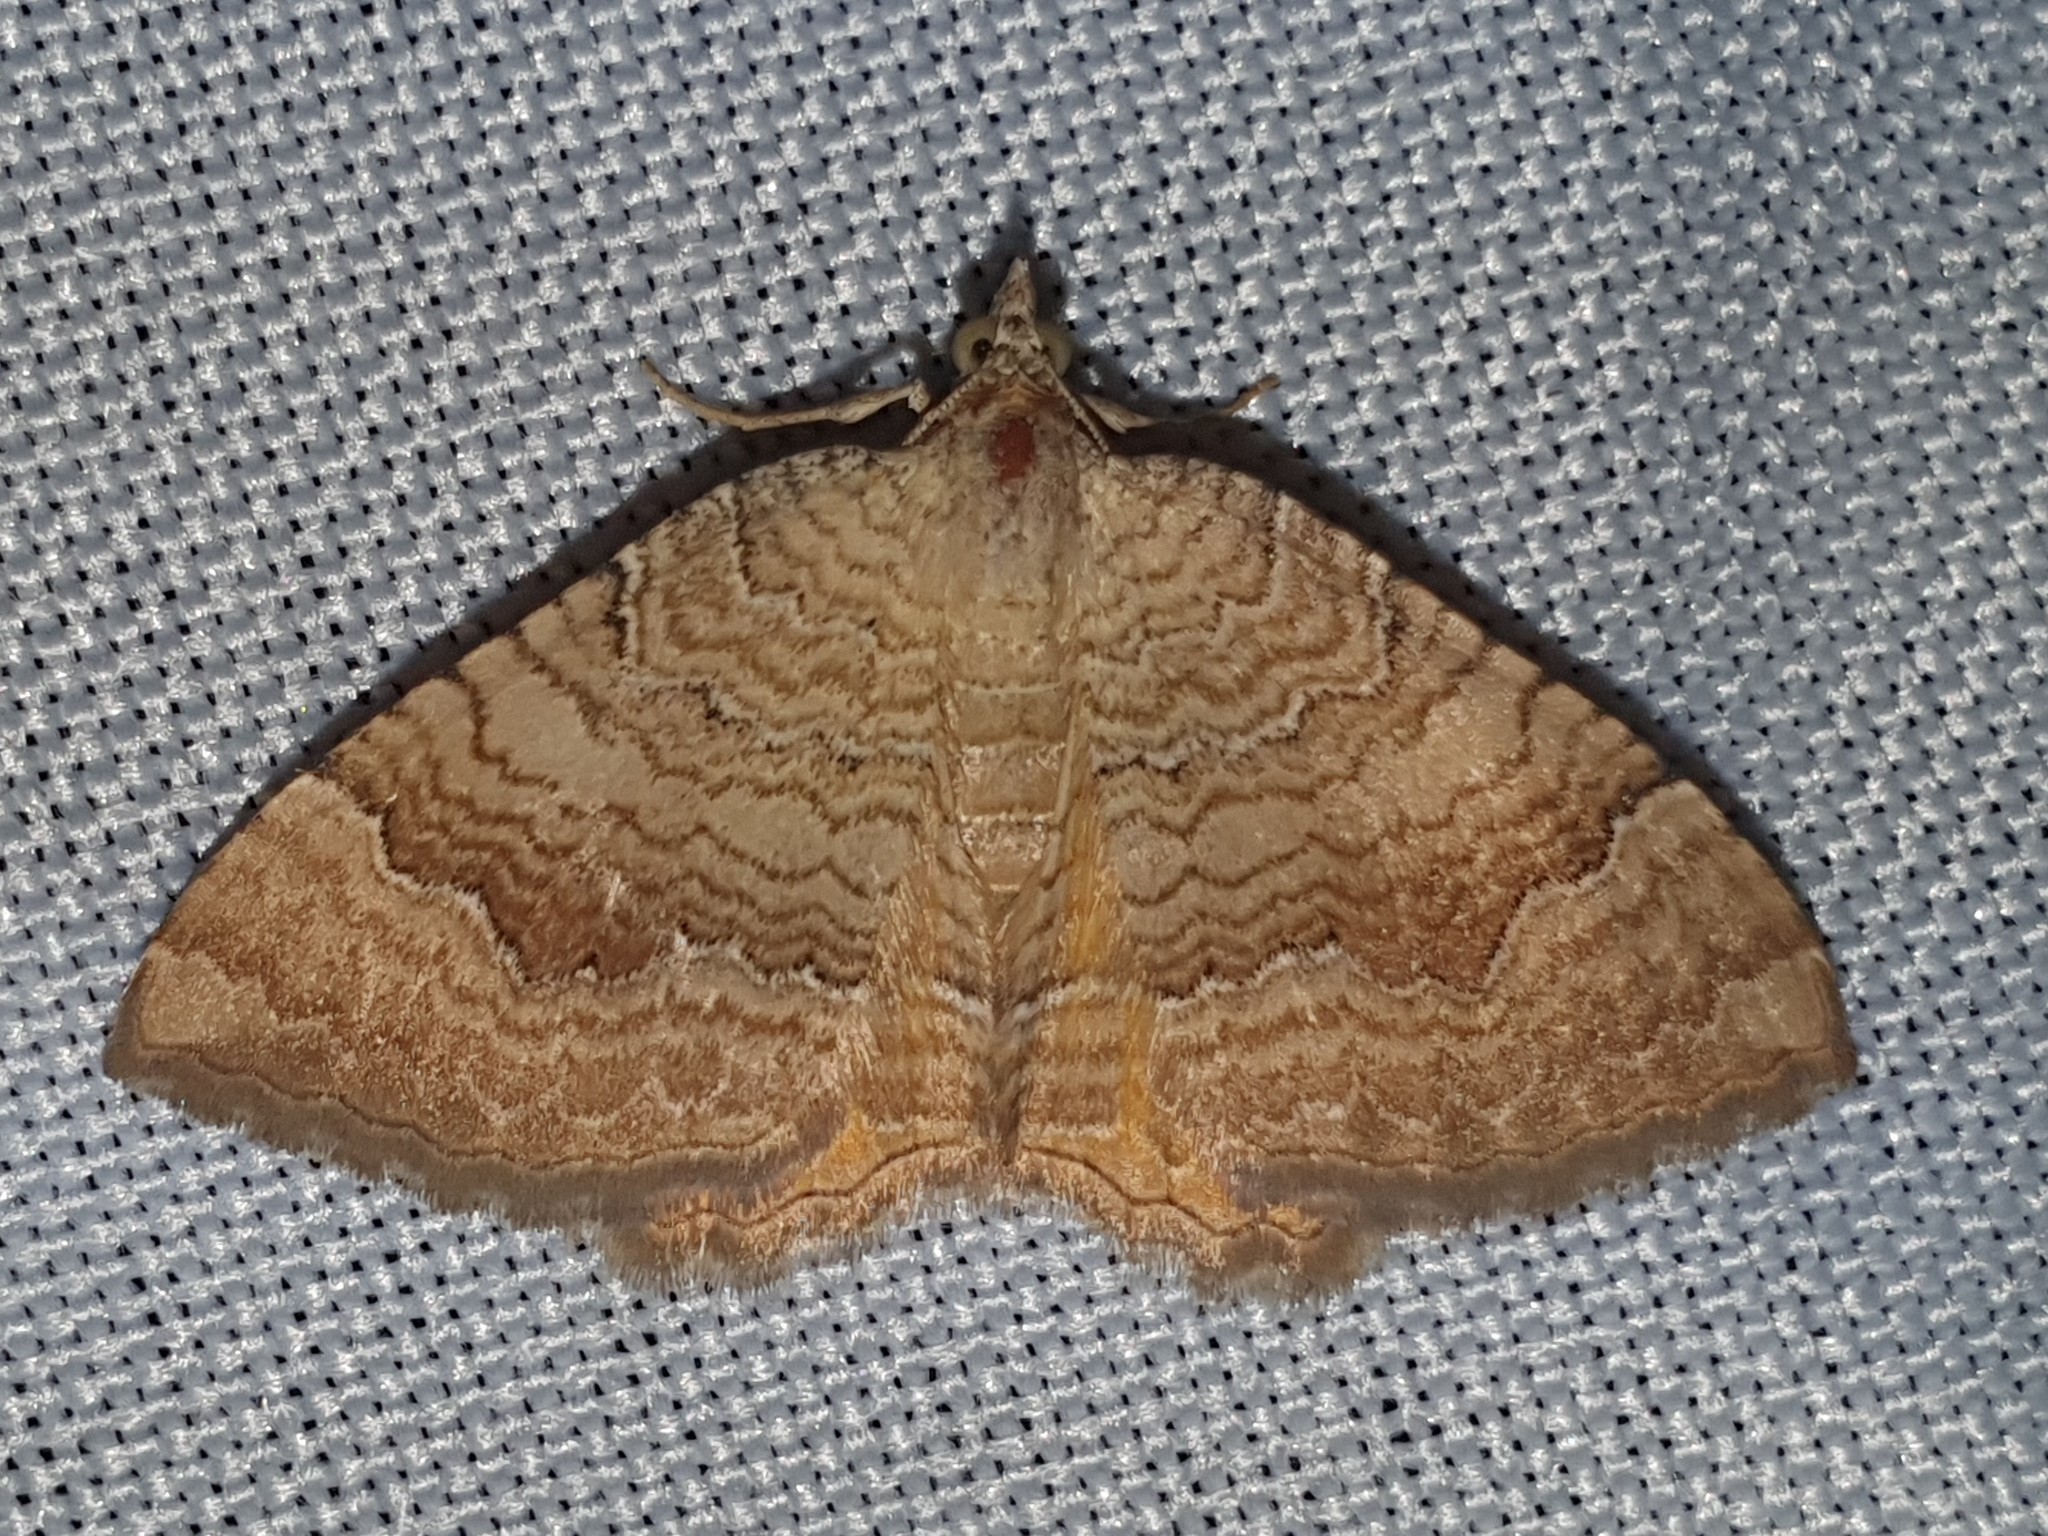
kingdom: Animalia
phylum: Arthropoda
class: Insecta
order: Lepidoptera
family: Geometridae
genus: Camptogramma
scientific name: Camptogramma bilineata
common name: Yellow shell
